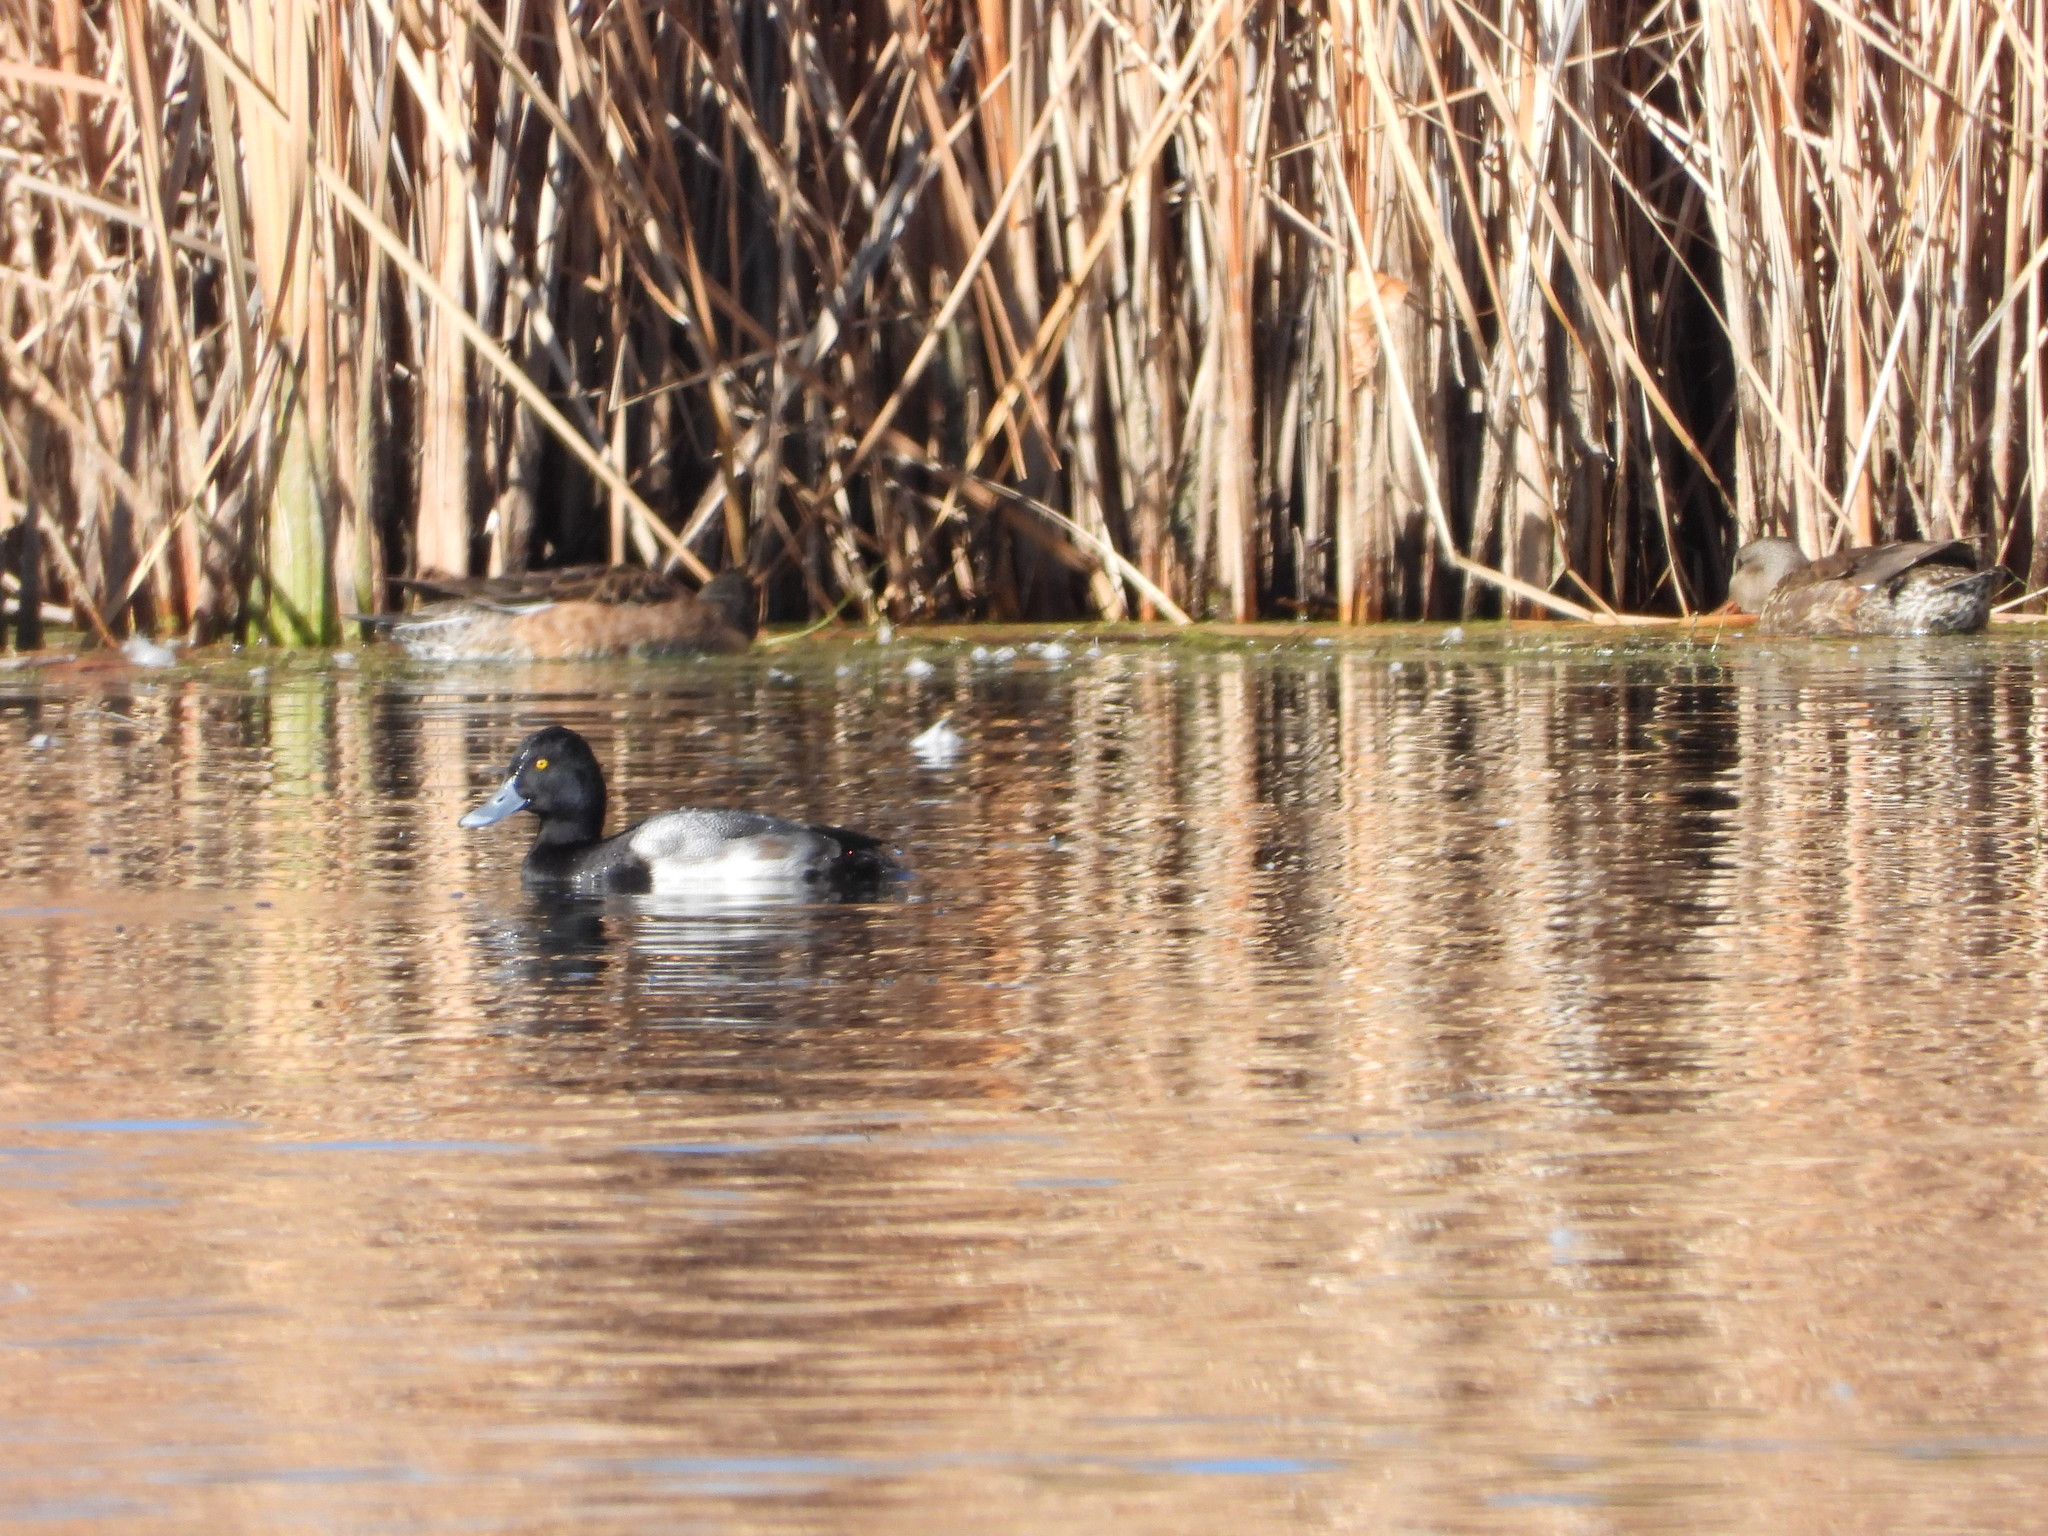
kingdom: Animalia
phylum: Chordata
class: Aves
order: Anseriformes
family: Anatidae
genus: Aythya
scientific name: Aythya affinis
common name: Lesser scaup
